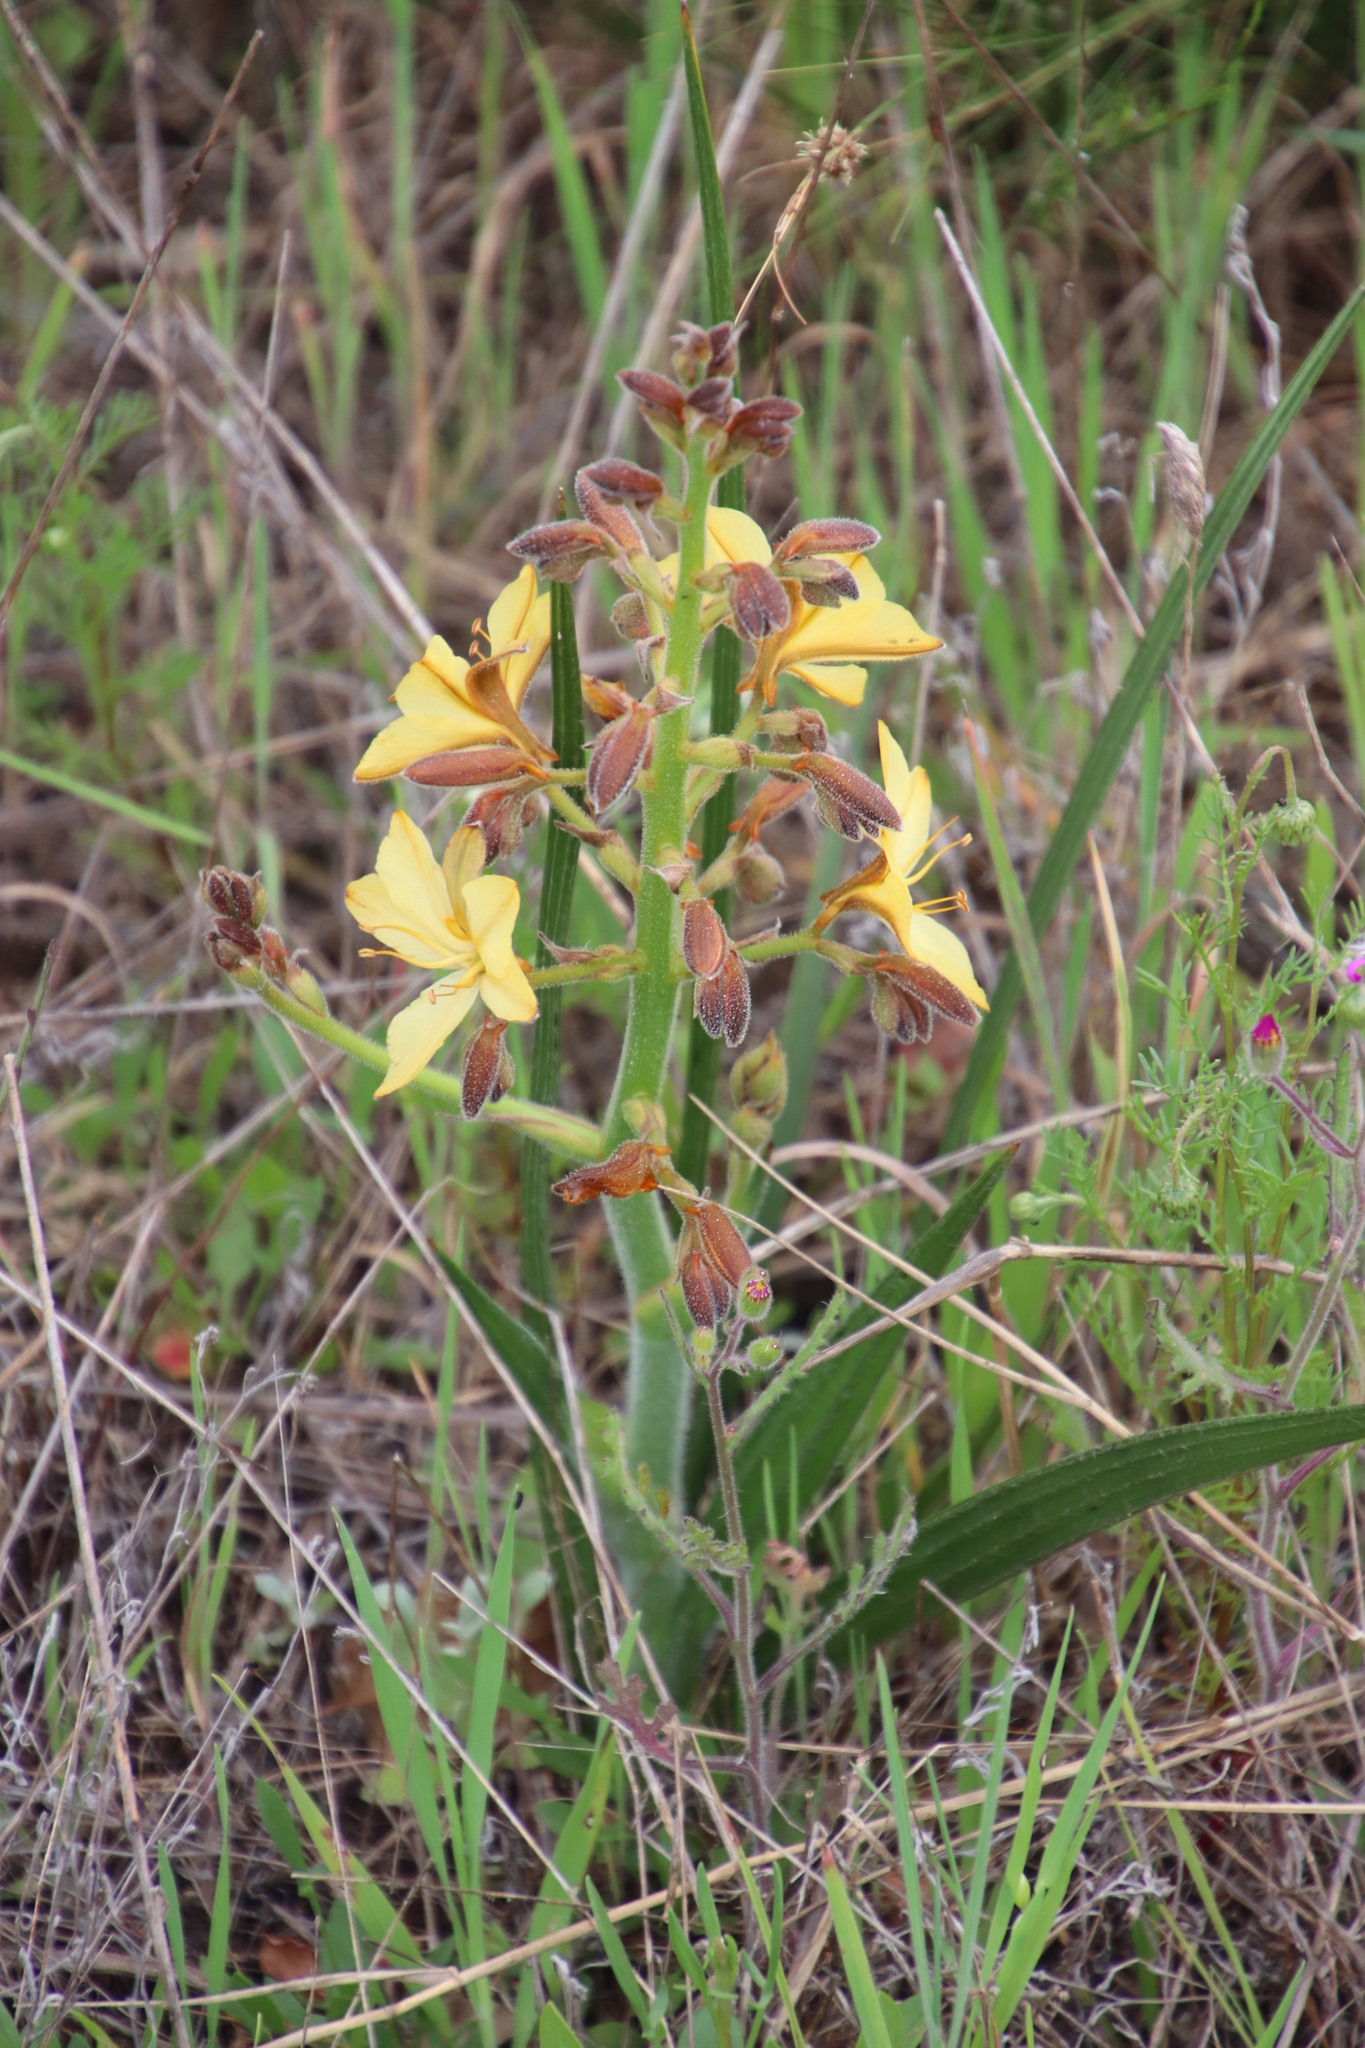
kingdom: Plantae
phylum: Tracheophyta
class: Liliopsida
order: Commelinales
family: Haemodoraceae
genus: Wachendorfia
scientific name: Wachendorfia paniculata
